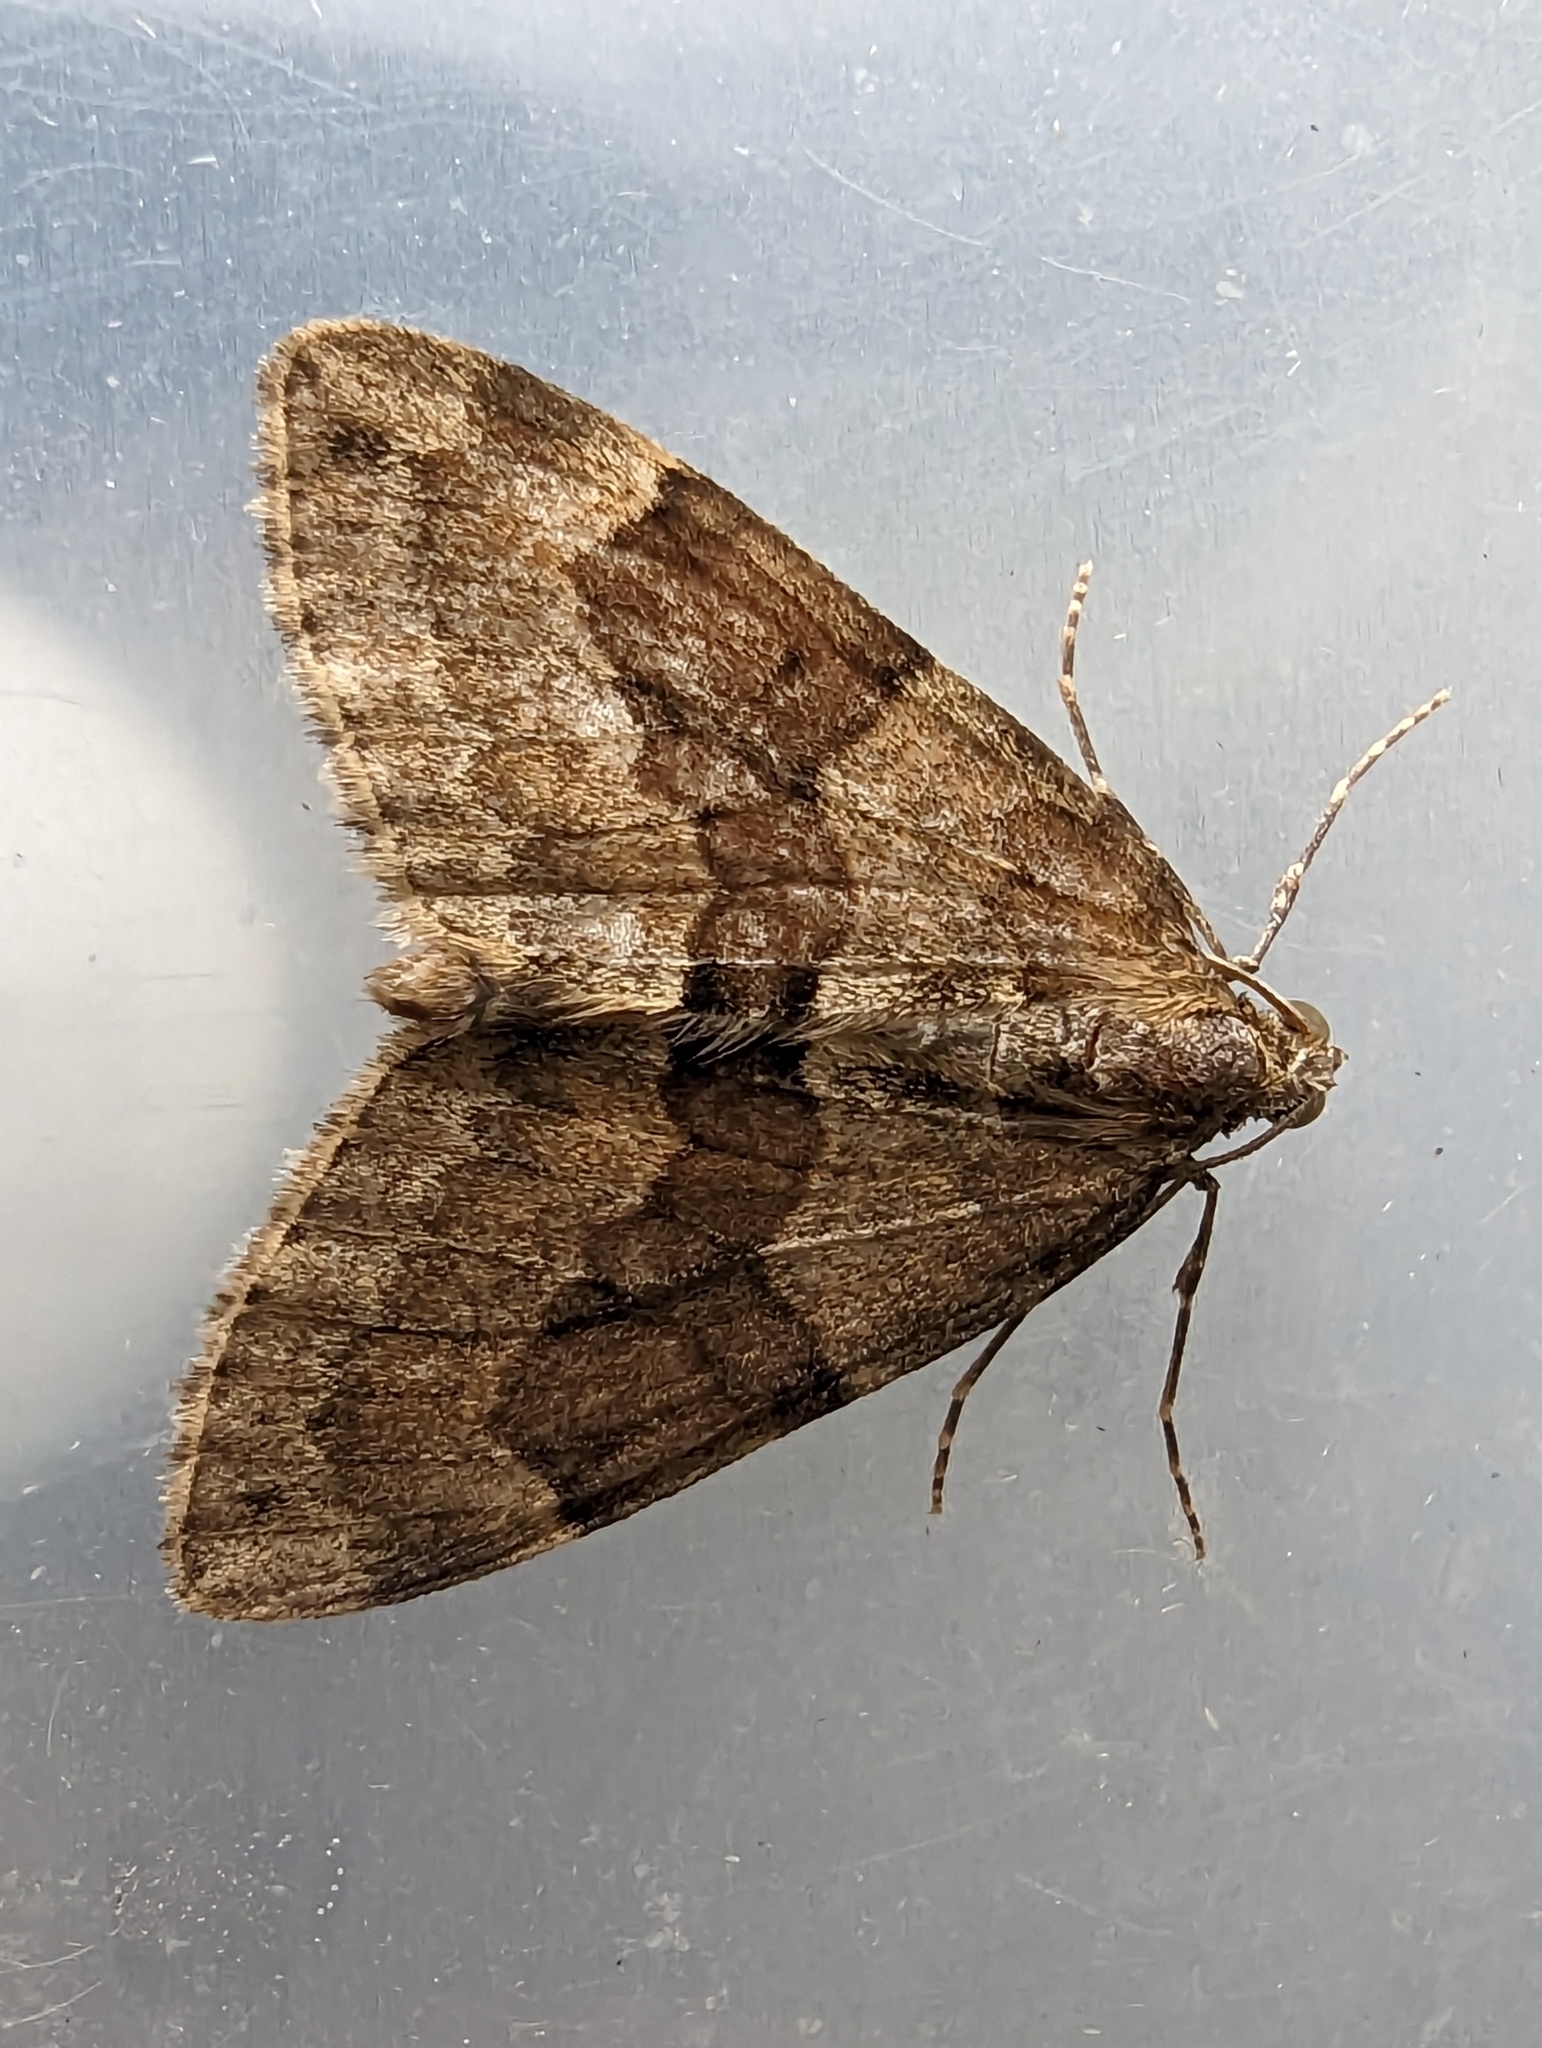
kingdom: Animalia
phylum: Arthropoda
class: Insecta
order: Lepidoptera
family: Geometridae
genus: Thera
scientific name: Thera britannica
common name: Spruce carpet
